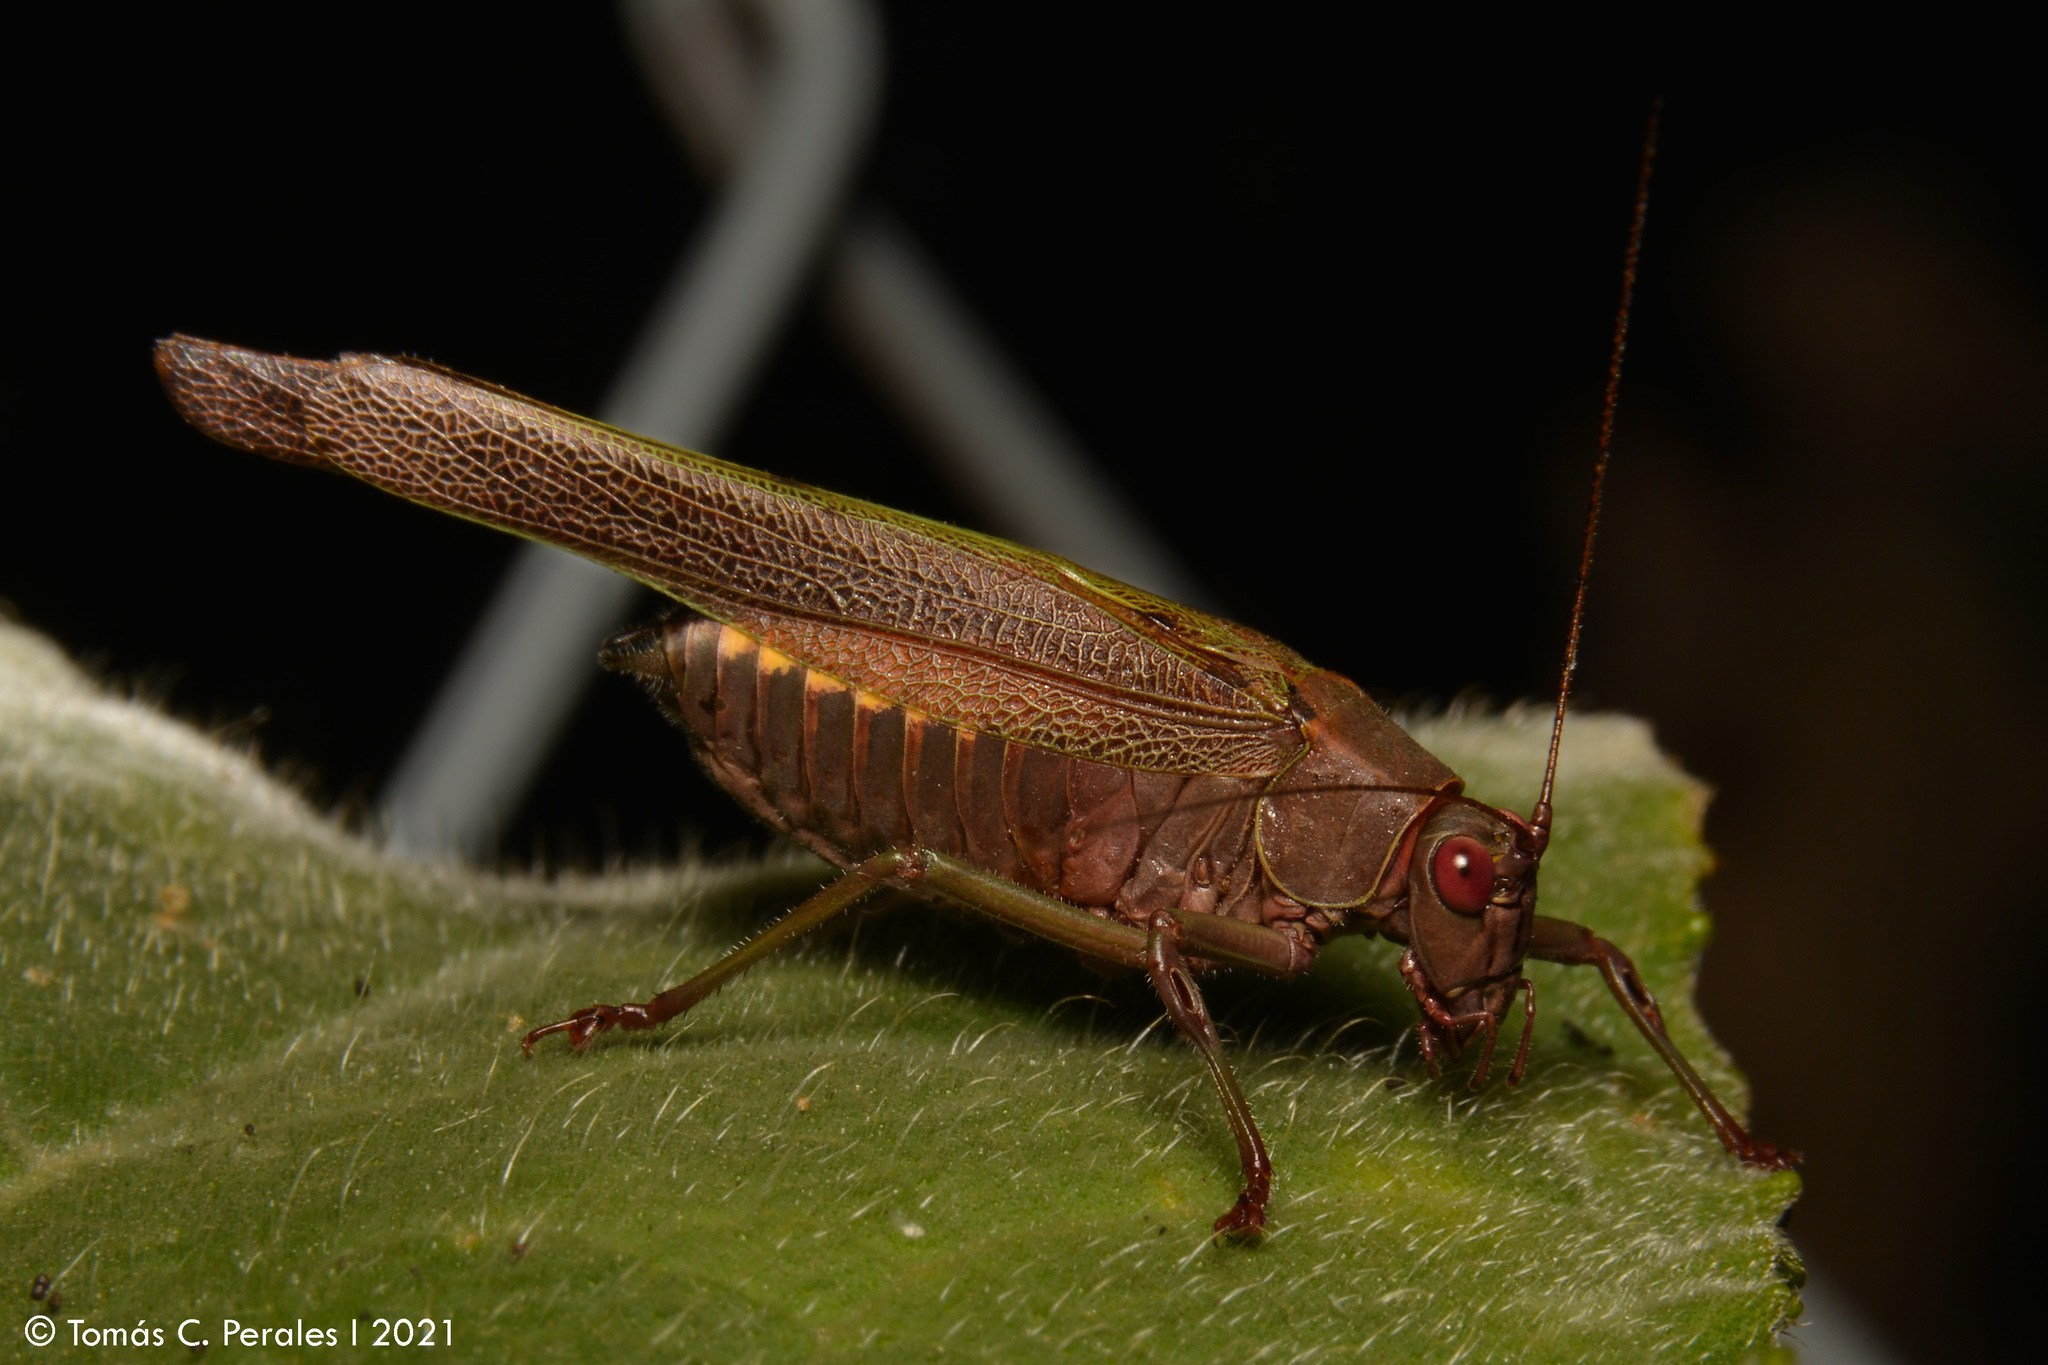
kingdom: Animalia
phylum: Arthropoda
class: Insecta
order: Orthoptera
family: Tettigoniidae
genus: Enthephippion
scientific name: Enthephippion borellii
